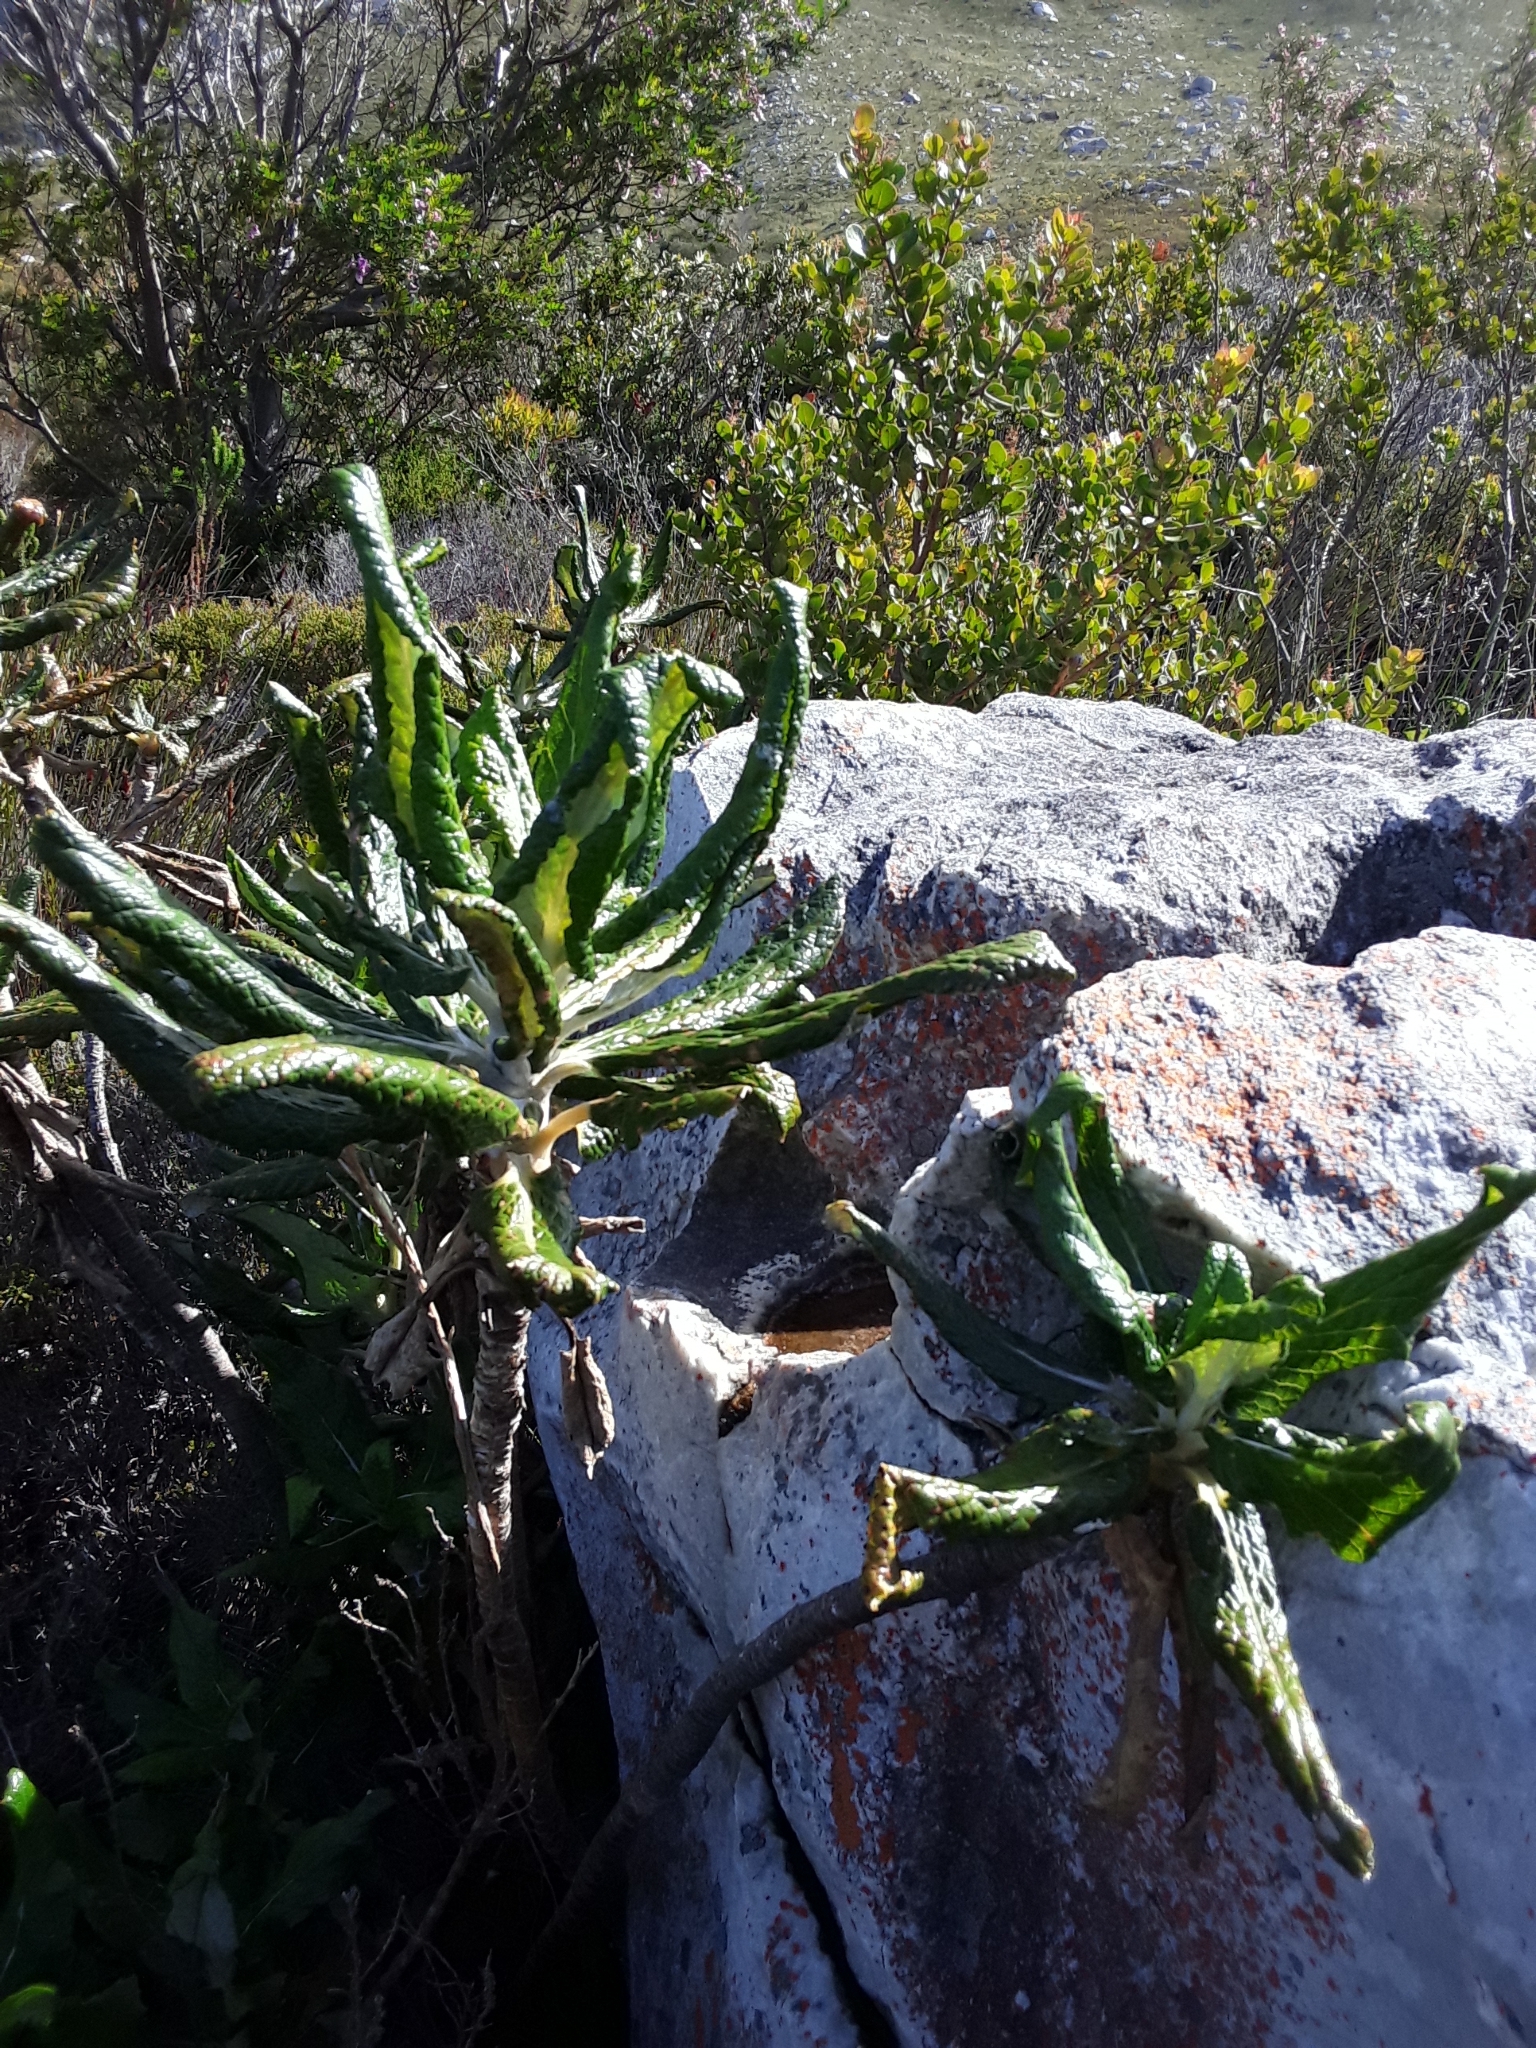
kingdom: Plantae
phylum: Tracheophyta
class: Magnoliopsida
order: Apiales
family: Apiaceae
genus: Hermas
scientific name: Hermas villosa
